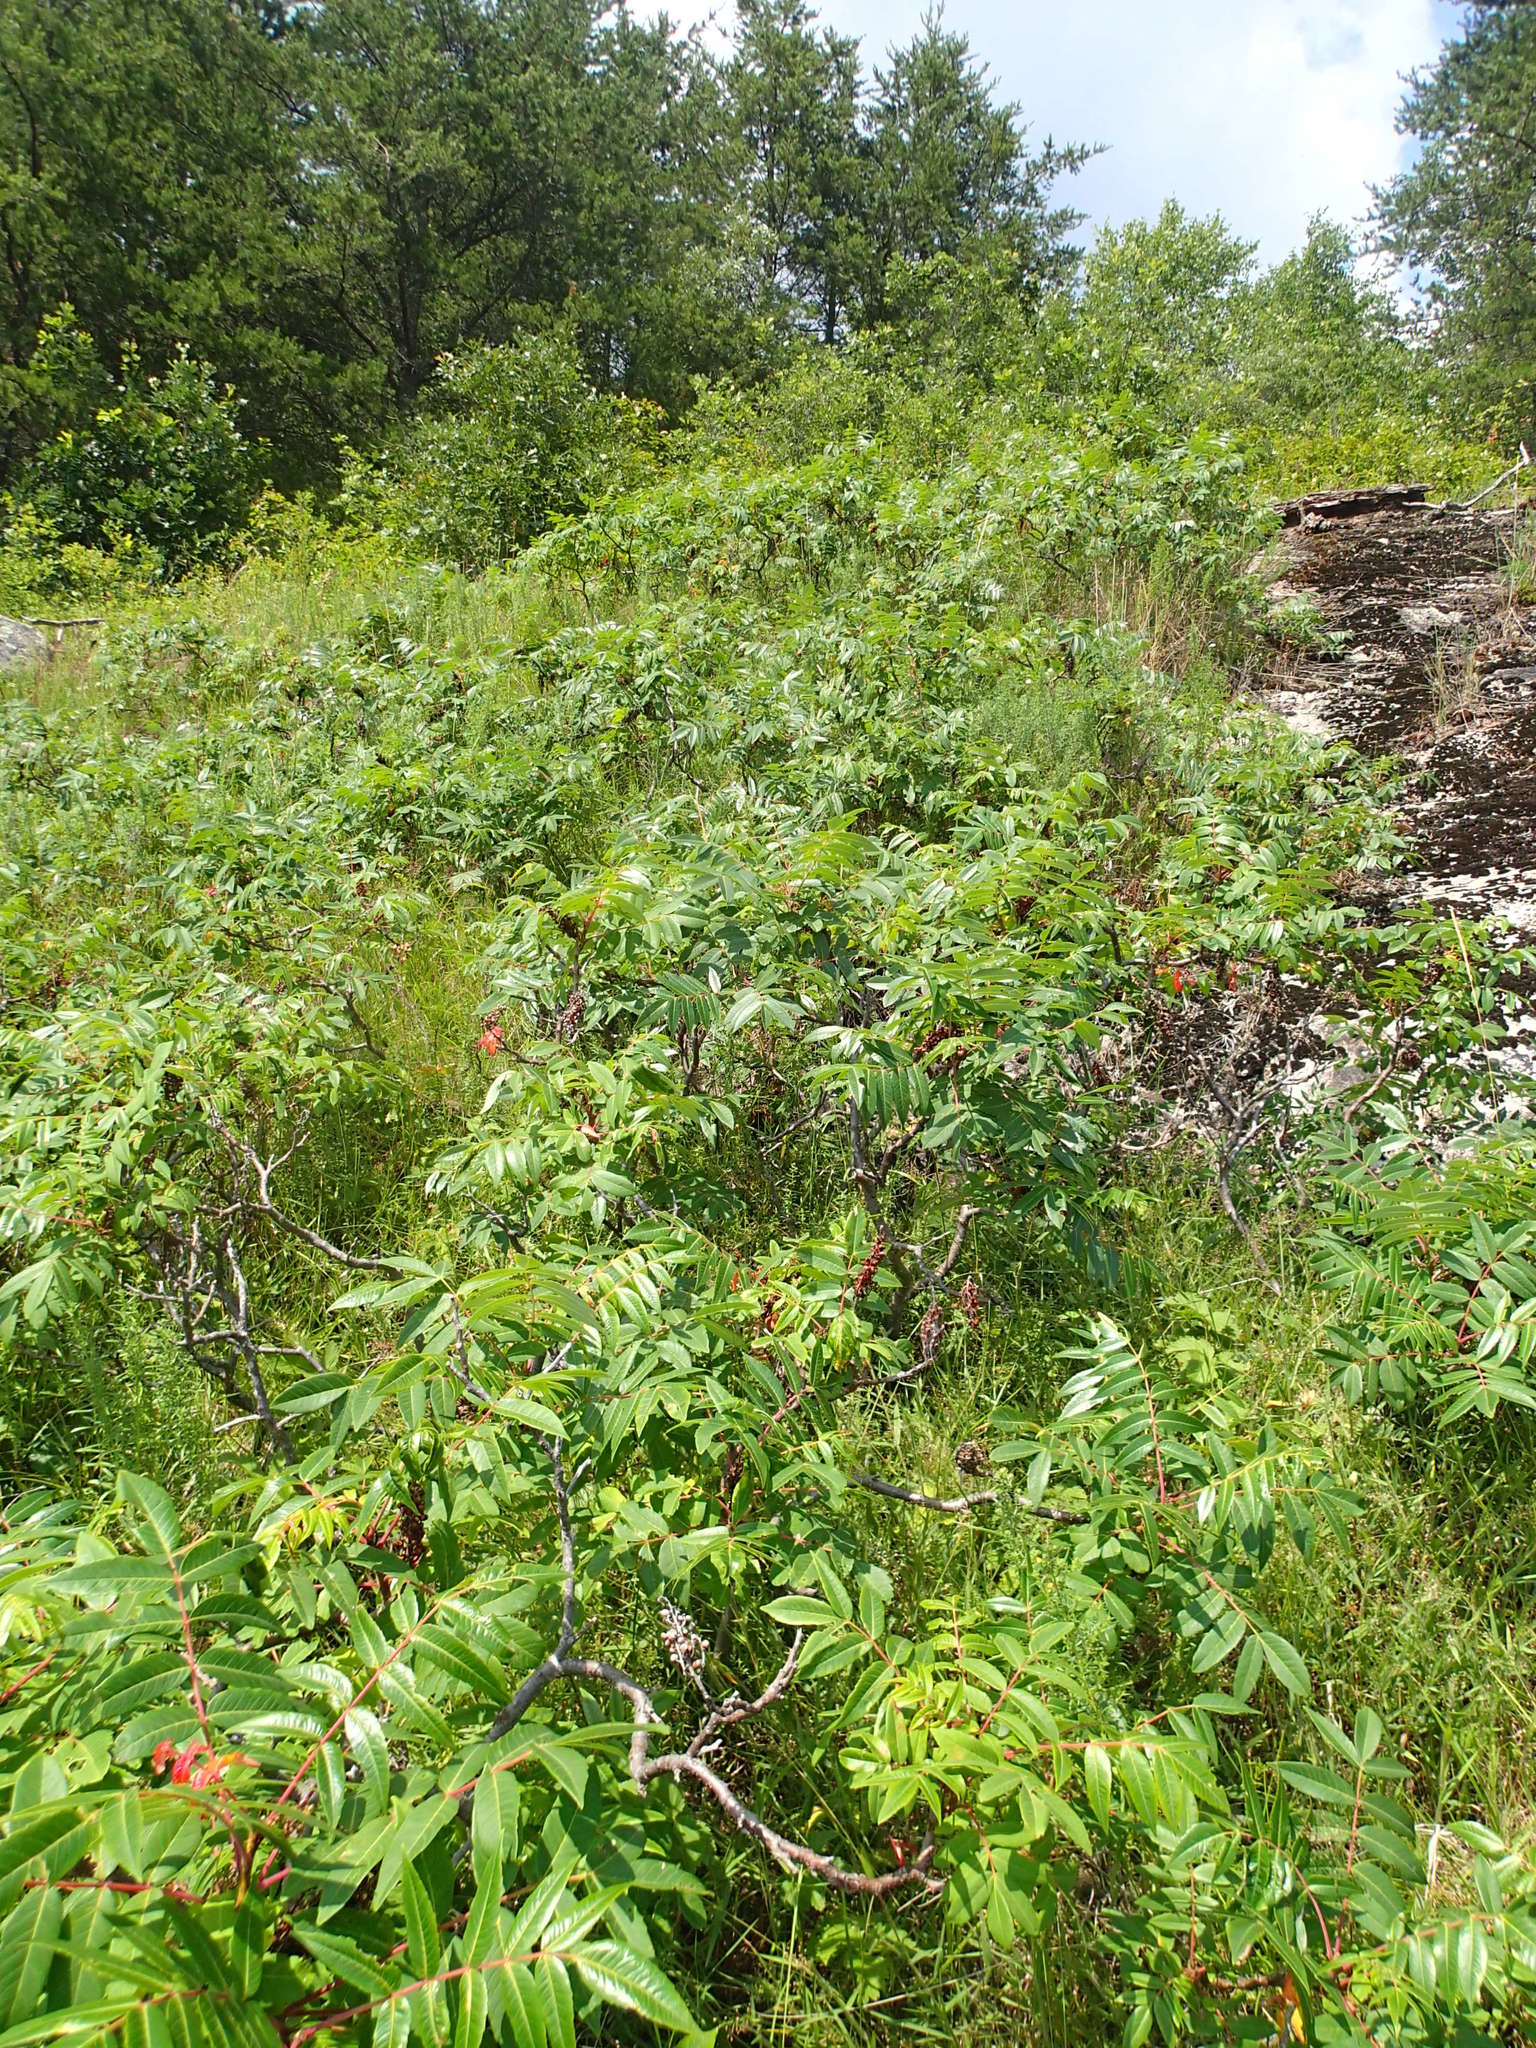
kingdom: Plantae
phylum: Tracheophyta
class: Magnoliopsida
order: Sapindales
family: Anacardiaceae
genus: Rhus
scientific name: Rhus glabra
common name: Scarlet sumac
